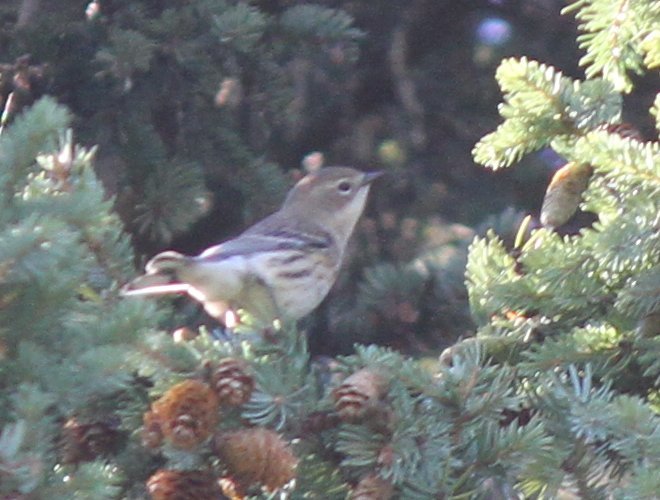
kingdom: Animalia
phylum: Chordata
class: Aves
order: Passeriformes
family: Parulidae
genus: Setophaga
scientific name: Setophaga coronata
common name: Myrtle warbler
